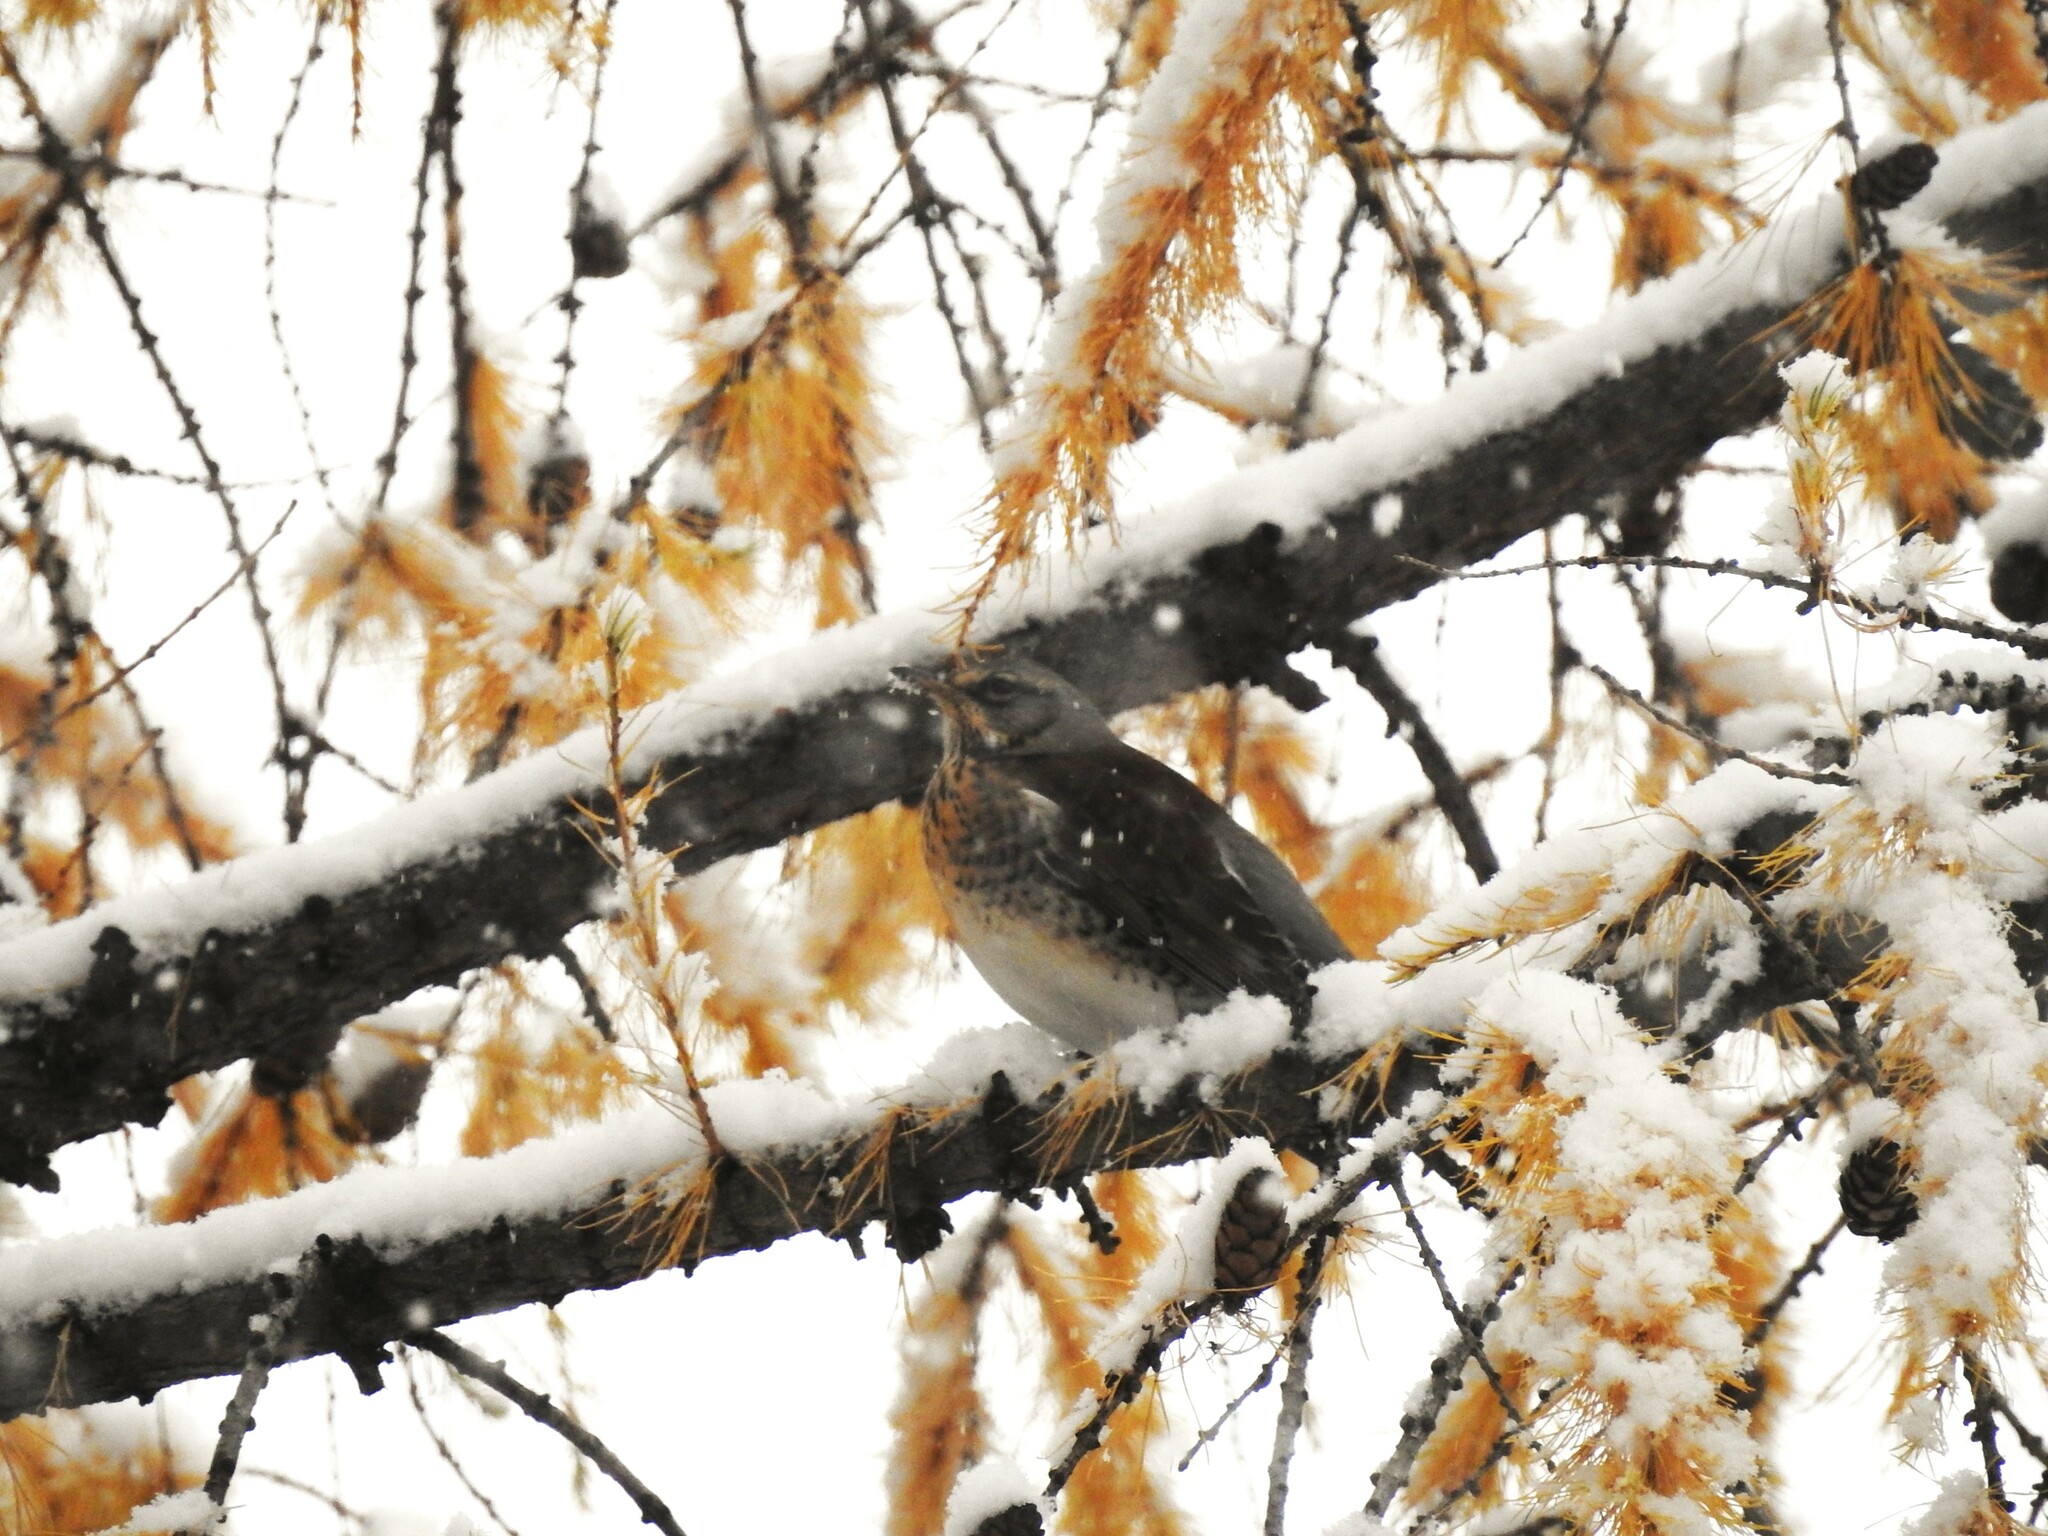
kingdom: Animalia
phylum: Chordata
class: Aves
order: Passeriformes
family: Turdidae
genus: Turdus
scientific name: Turdus pilaris
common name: Fieldfare
